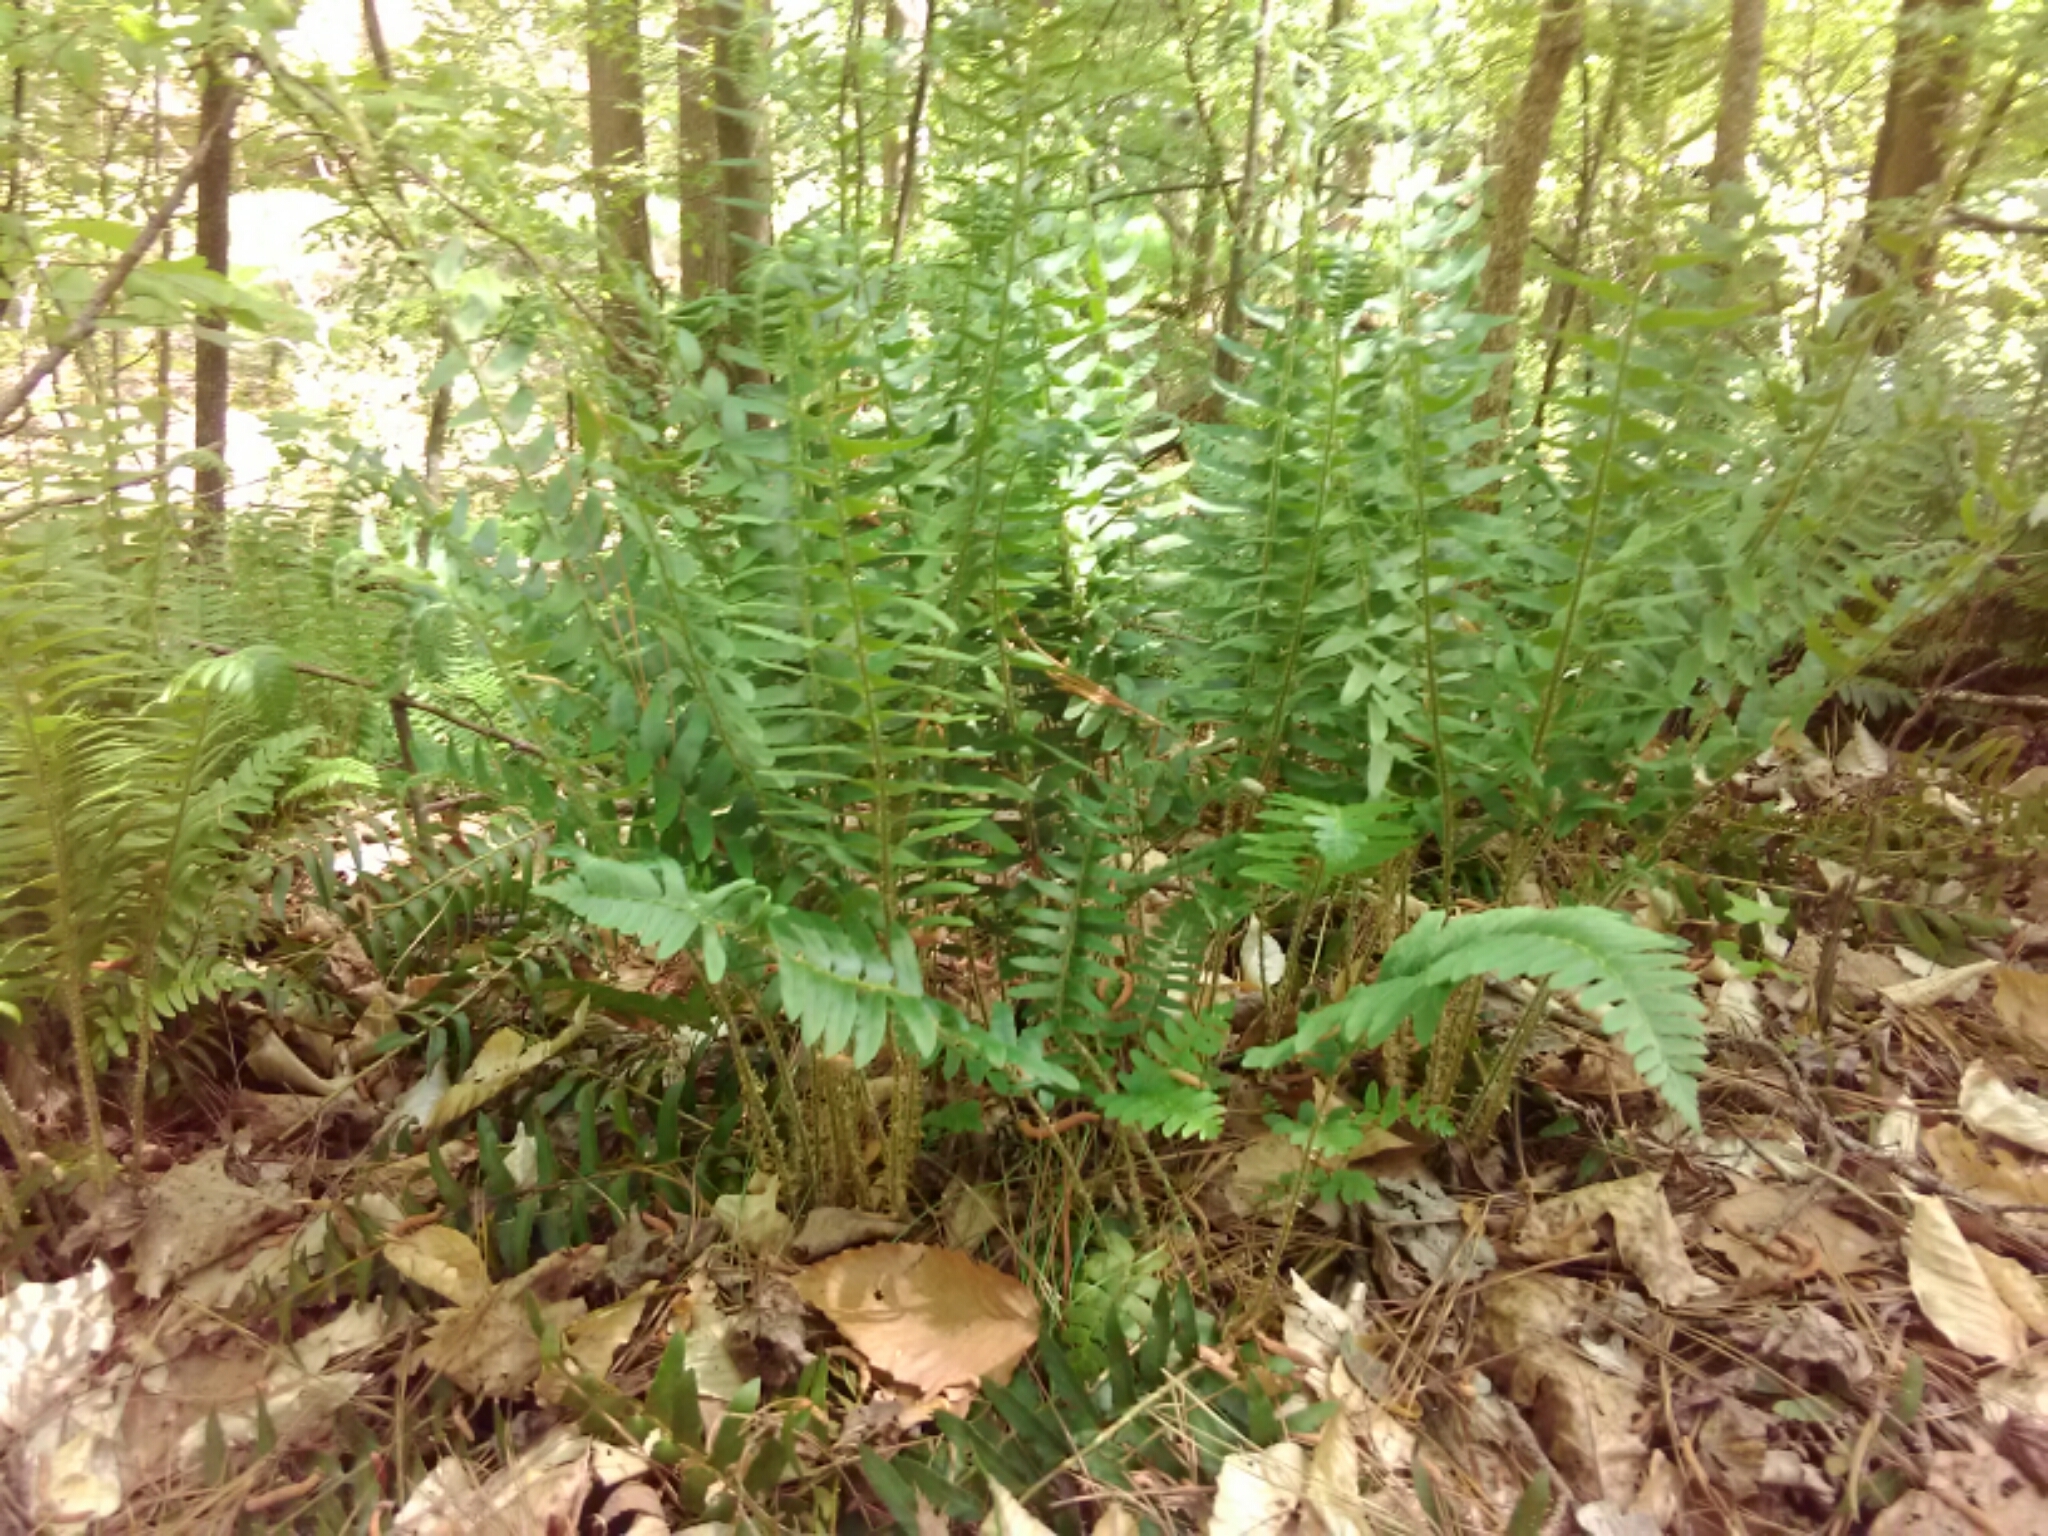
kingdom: Plantae
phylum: Tracheophyta
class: Polypodiopsida
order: Polypodiales
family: Dryopteridaceae
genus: Polystichum
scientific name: Polystichum acrostichoides
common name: Christmas fern
